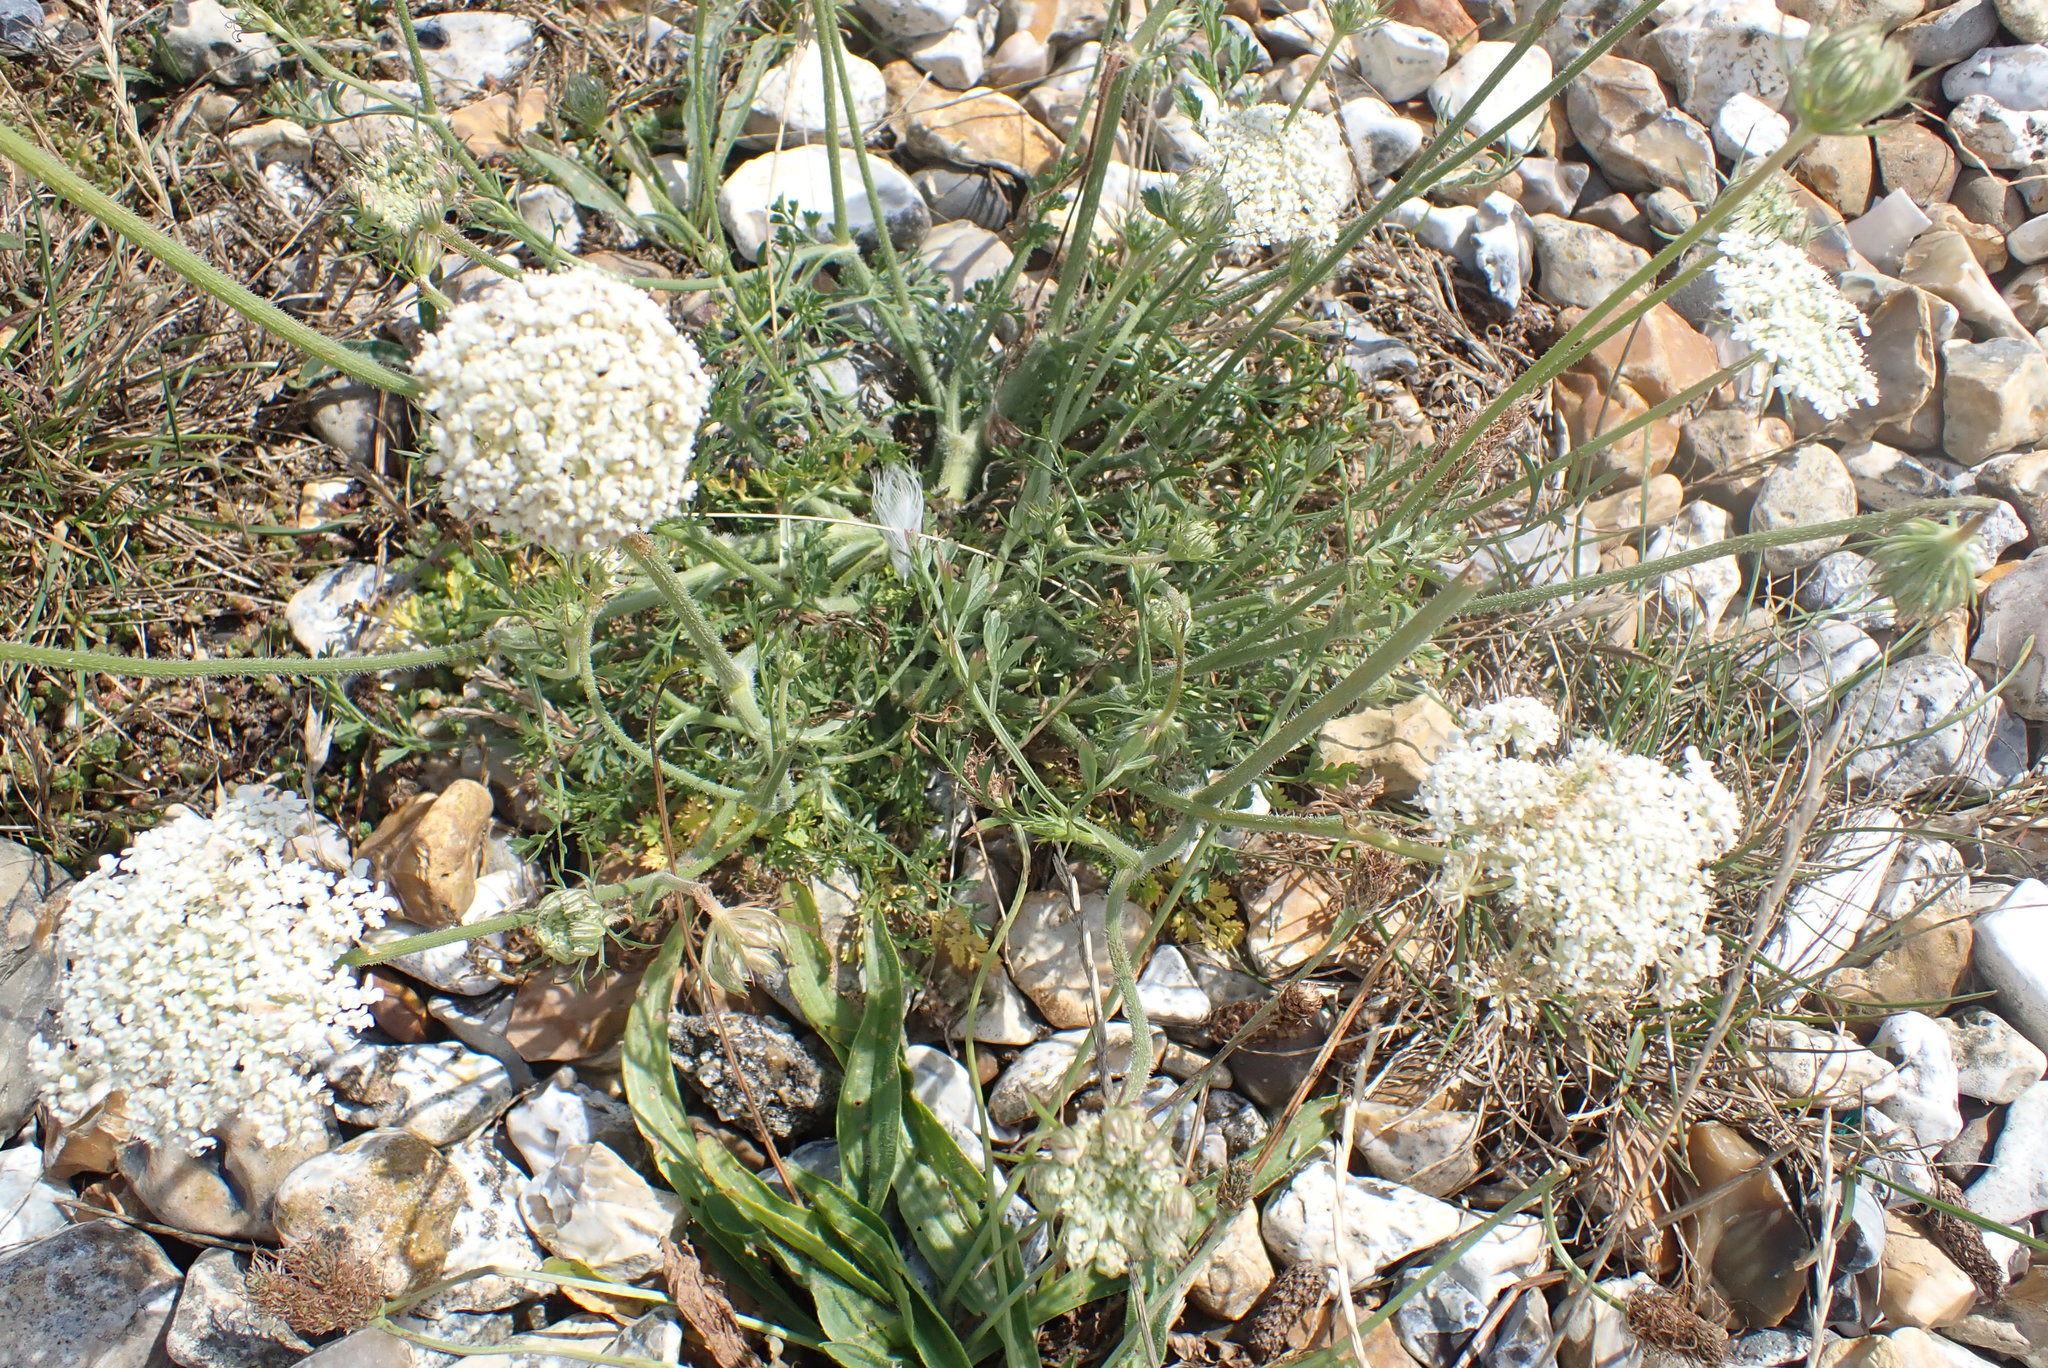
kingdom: Plantae
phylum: Tracheophyta
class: Magnoliopsida
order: Apiales
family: Apiaceae
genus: Daucus
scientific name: Daucus carota
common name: Wild carrot
